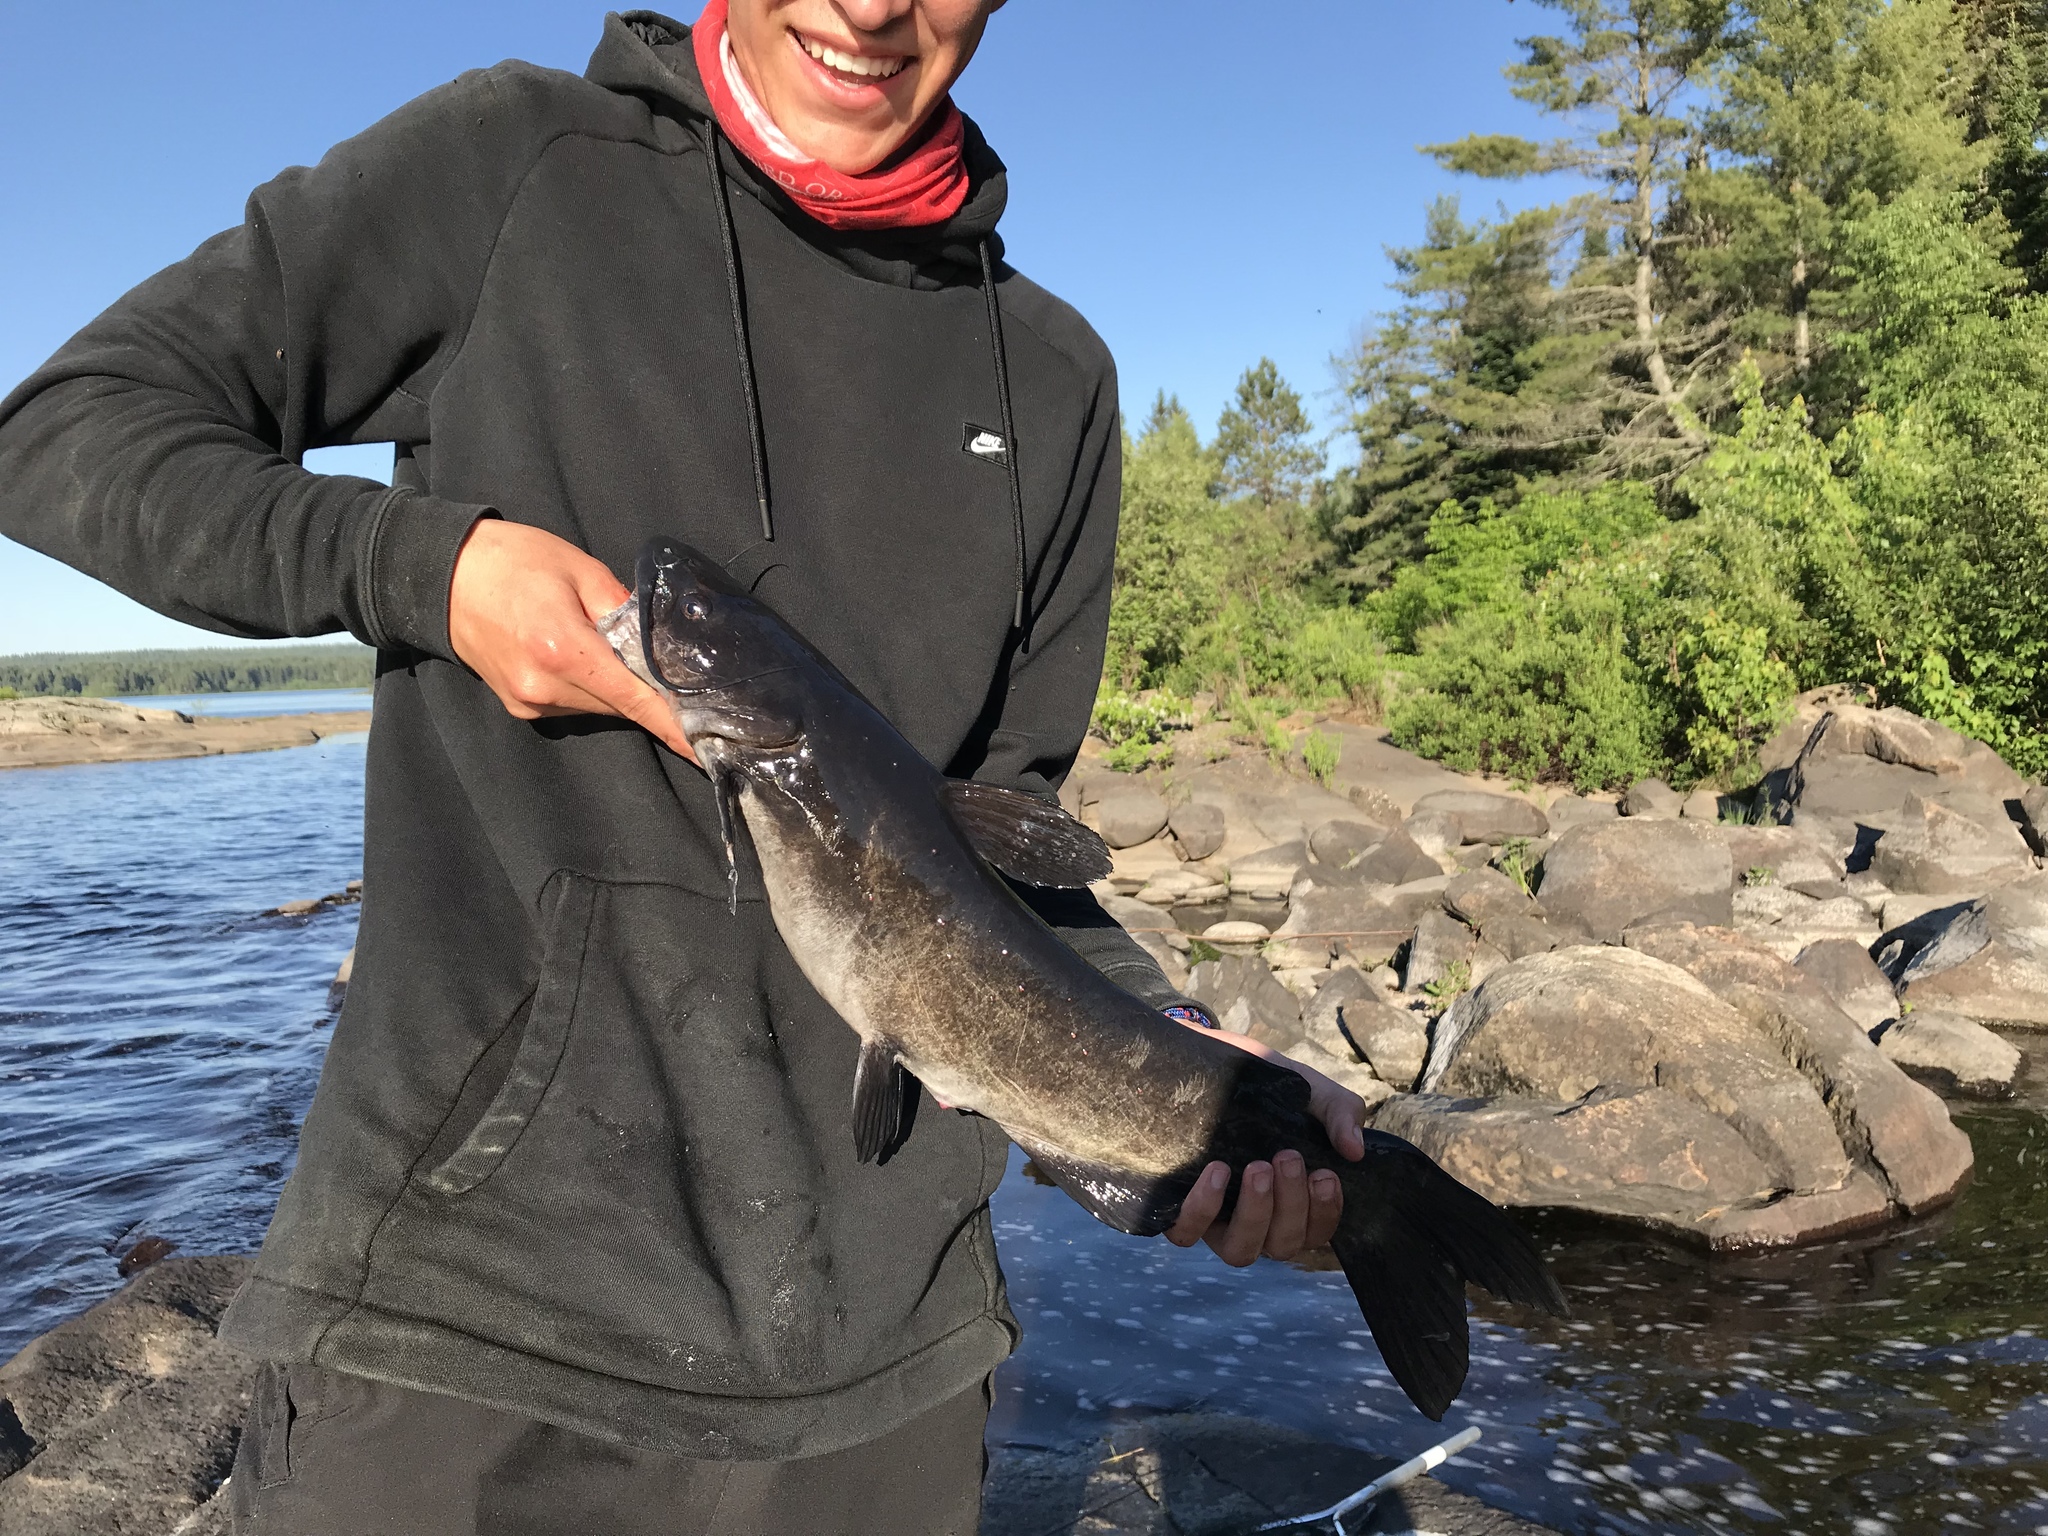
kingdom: Animalia
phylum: Chordata
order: Siluriformes
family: Ictaluridae
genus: Ictalurus
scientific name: Ictalurus punctatus
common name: Channel catfish
